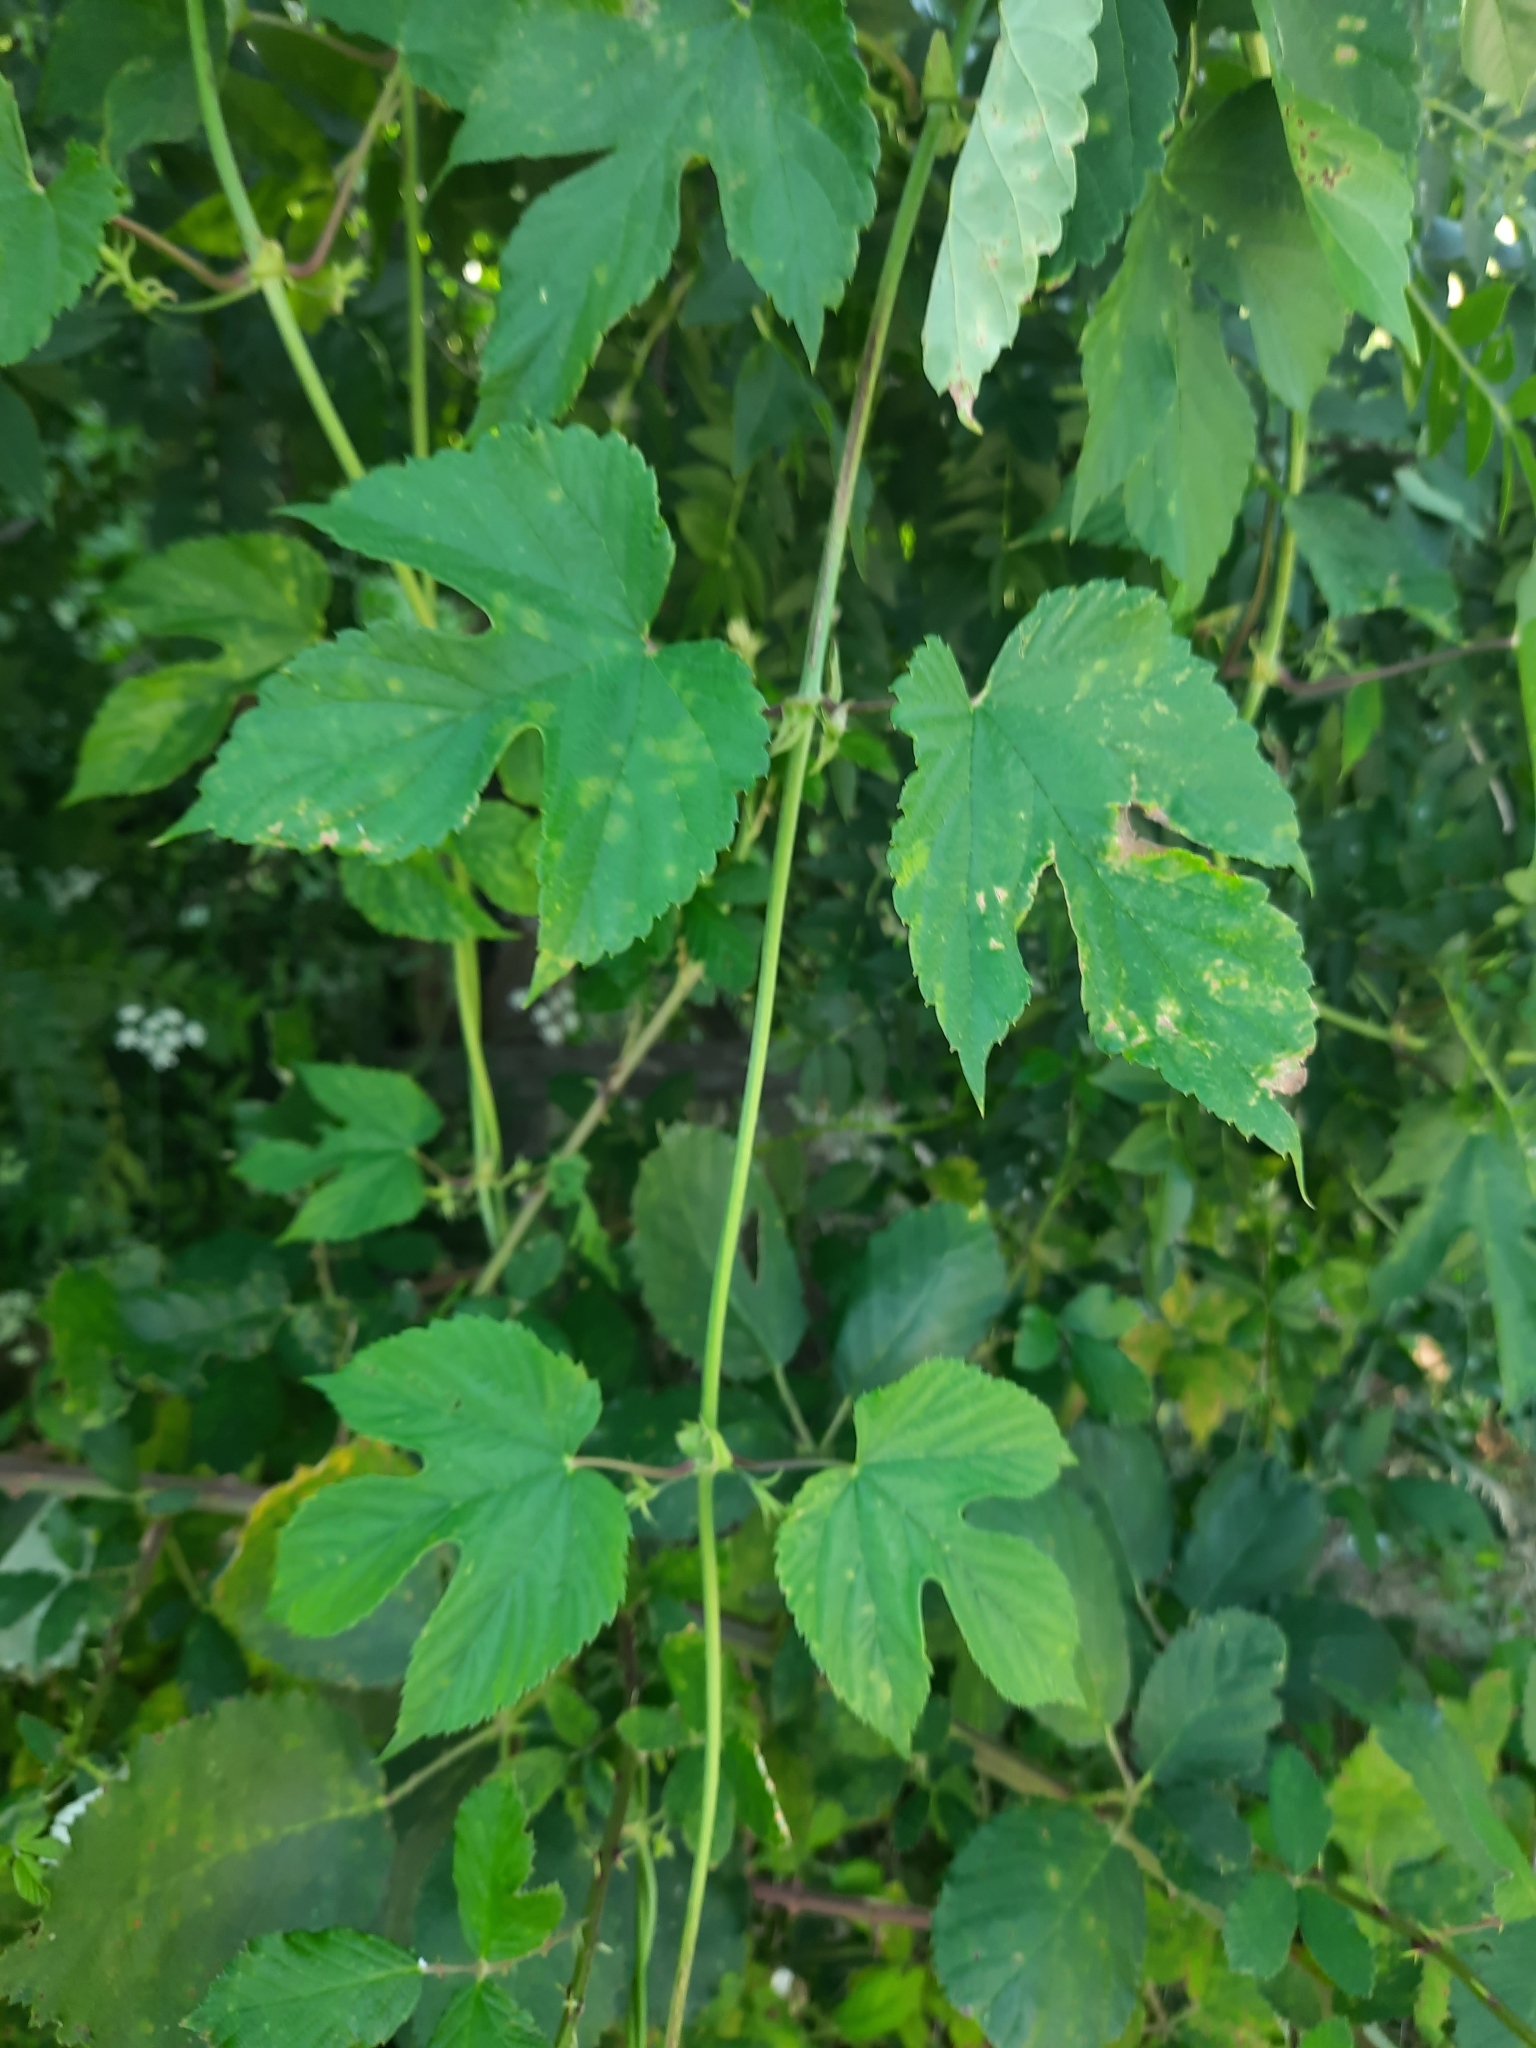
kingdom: Plantae
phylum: Tracheophyta
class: Magnoliopsida
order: Rosales
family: Cannabaceae
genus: Humulus
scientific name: Humulus lupulus
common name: Hop
